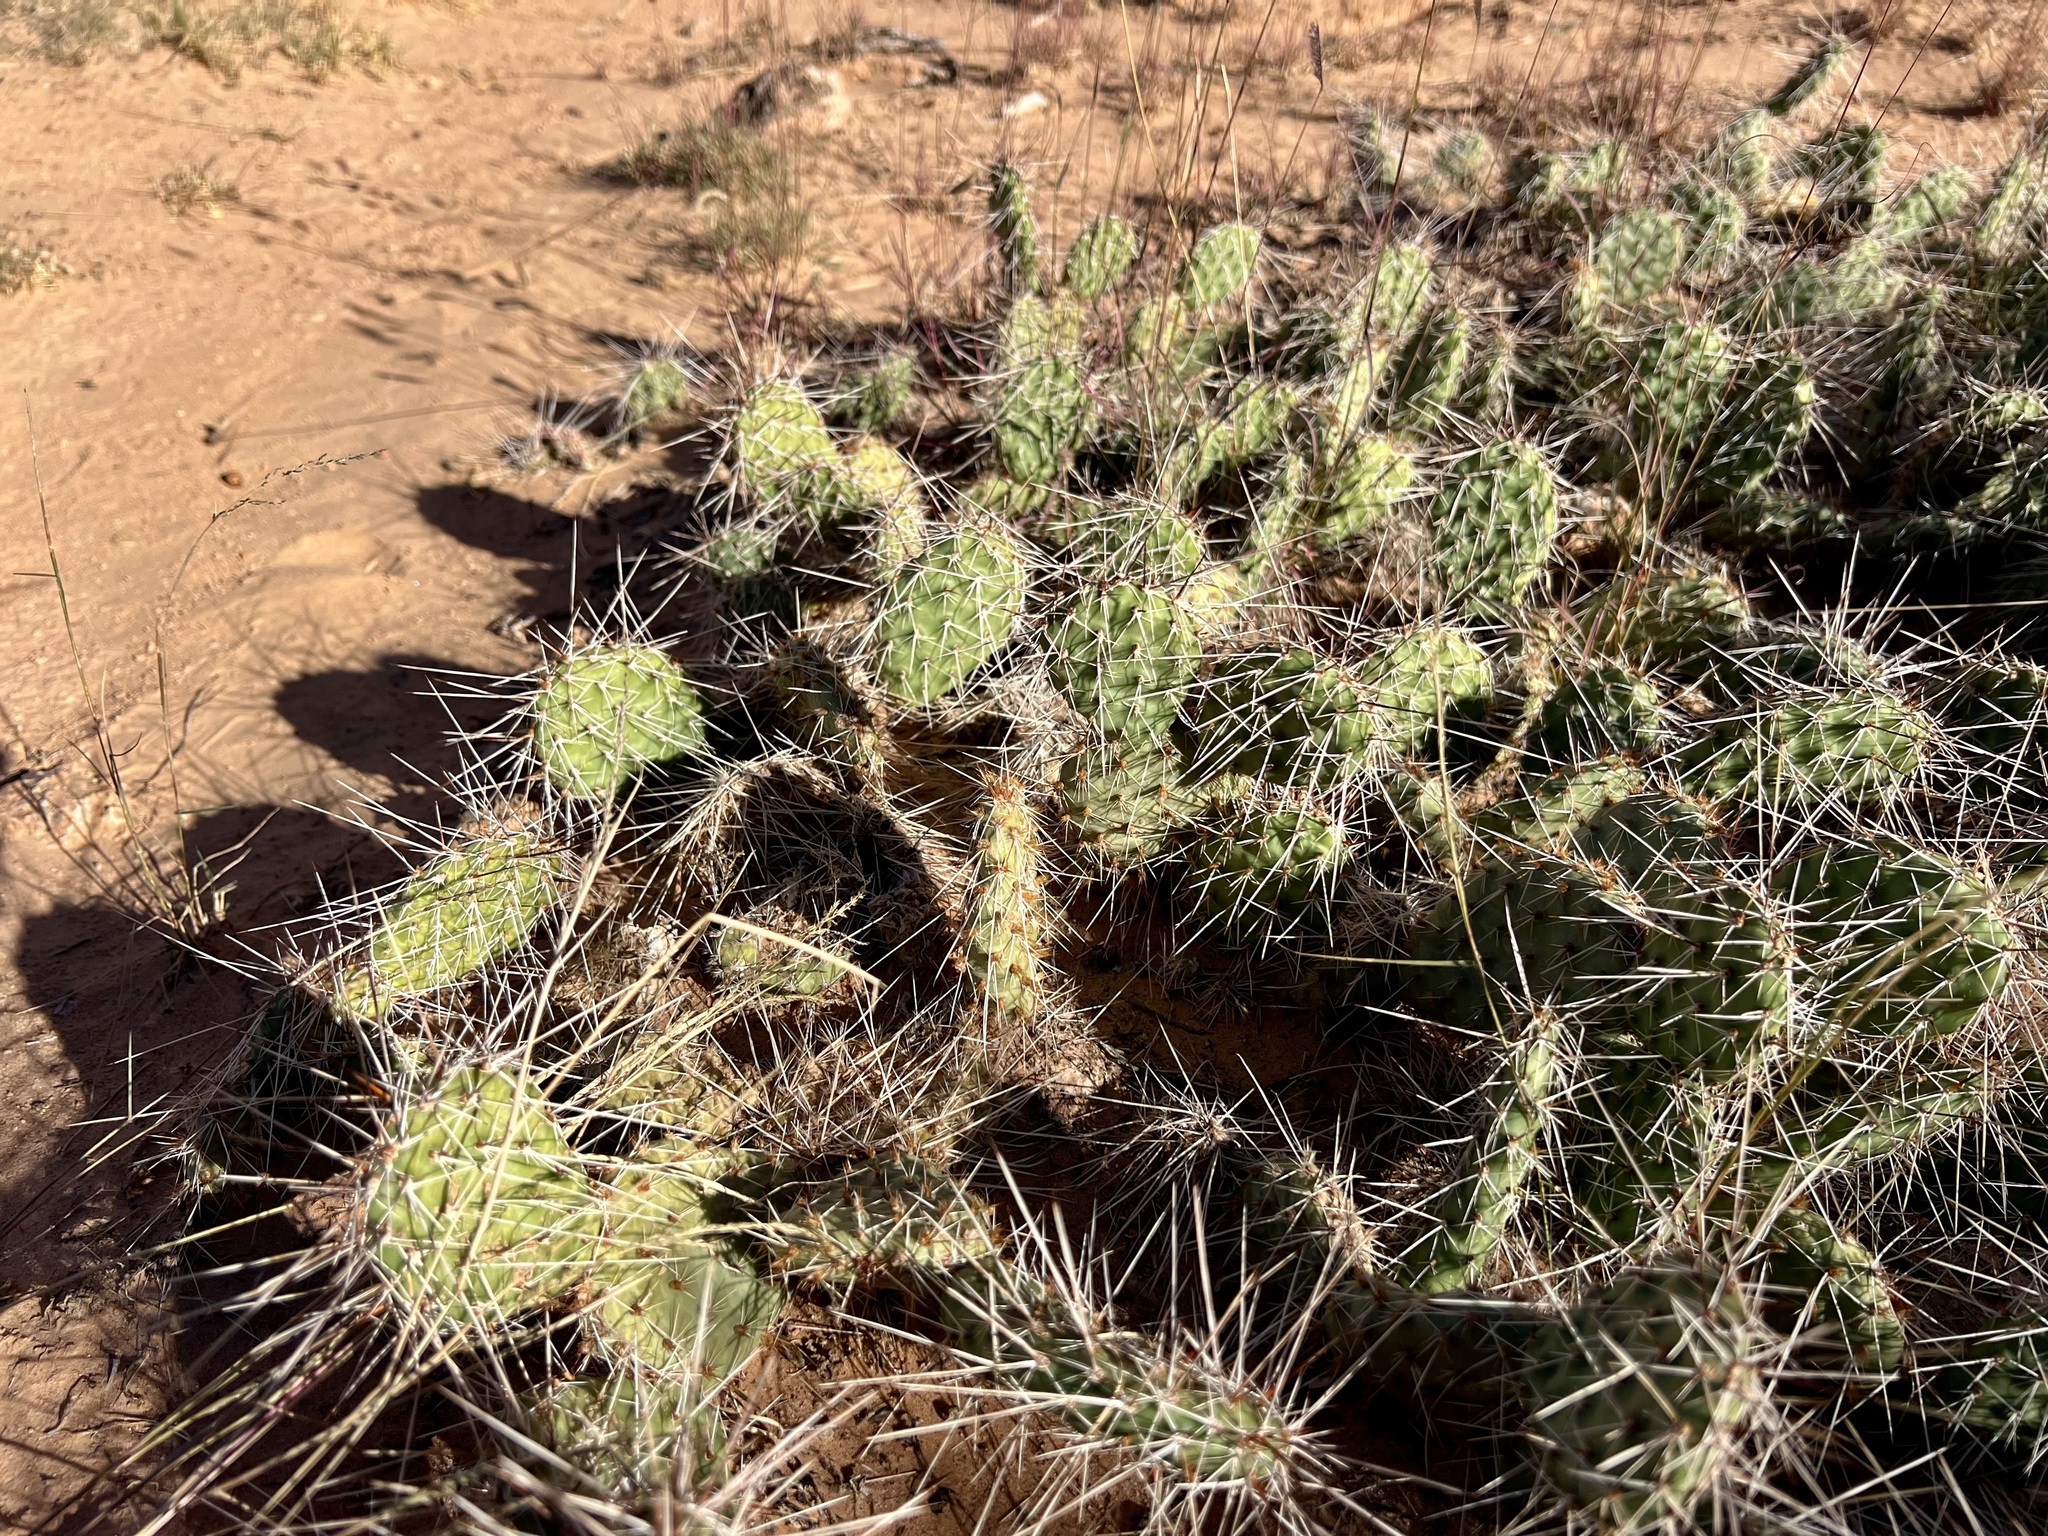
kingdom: Plantae
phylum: Tracheophyta
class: Magnoliopsida
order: Caryophyllales
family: Cactaceae
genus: Opuntia
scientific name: Opuntia polyacantha
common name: Plains prickly-pear
